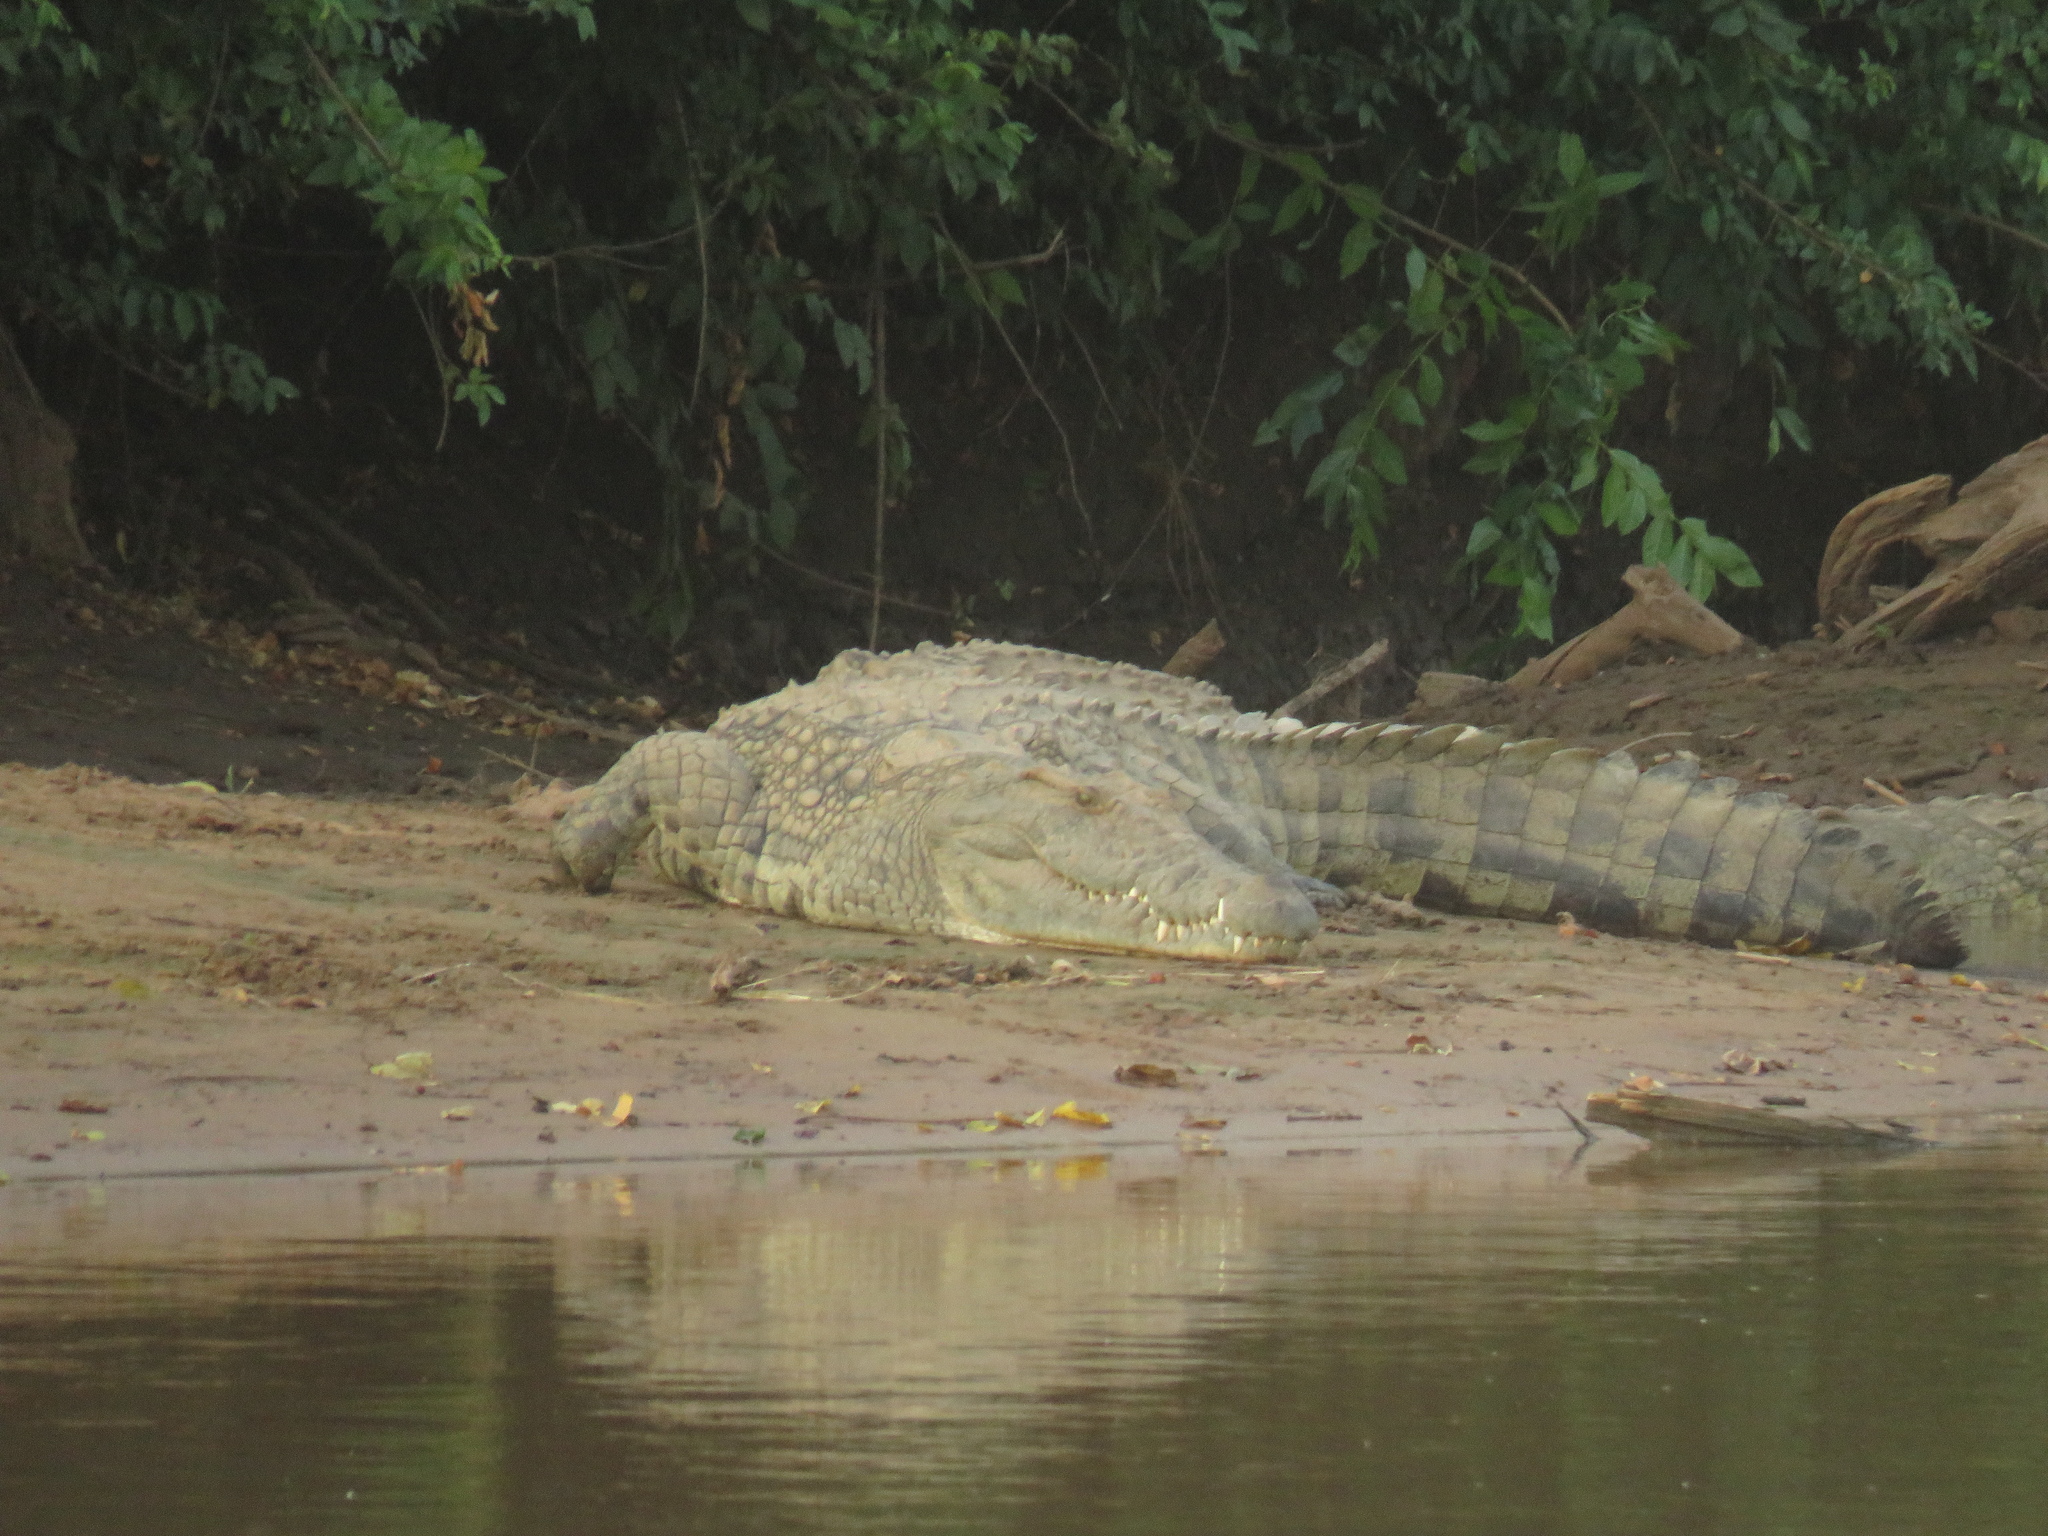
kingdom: Animalia
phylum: Chordata
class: Crocodylia
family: Crocodylidae
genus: Crocodylus
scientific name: Crocodylus niloticus
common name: Nile crocodile
